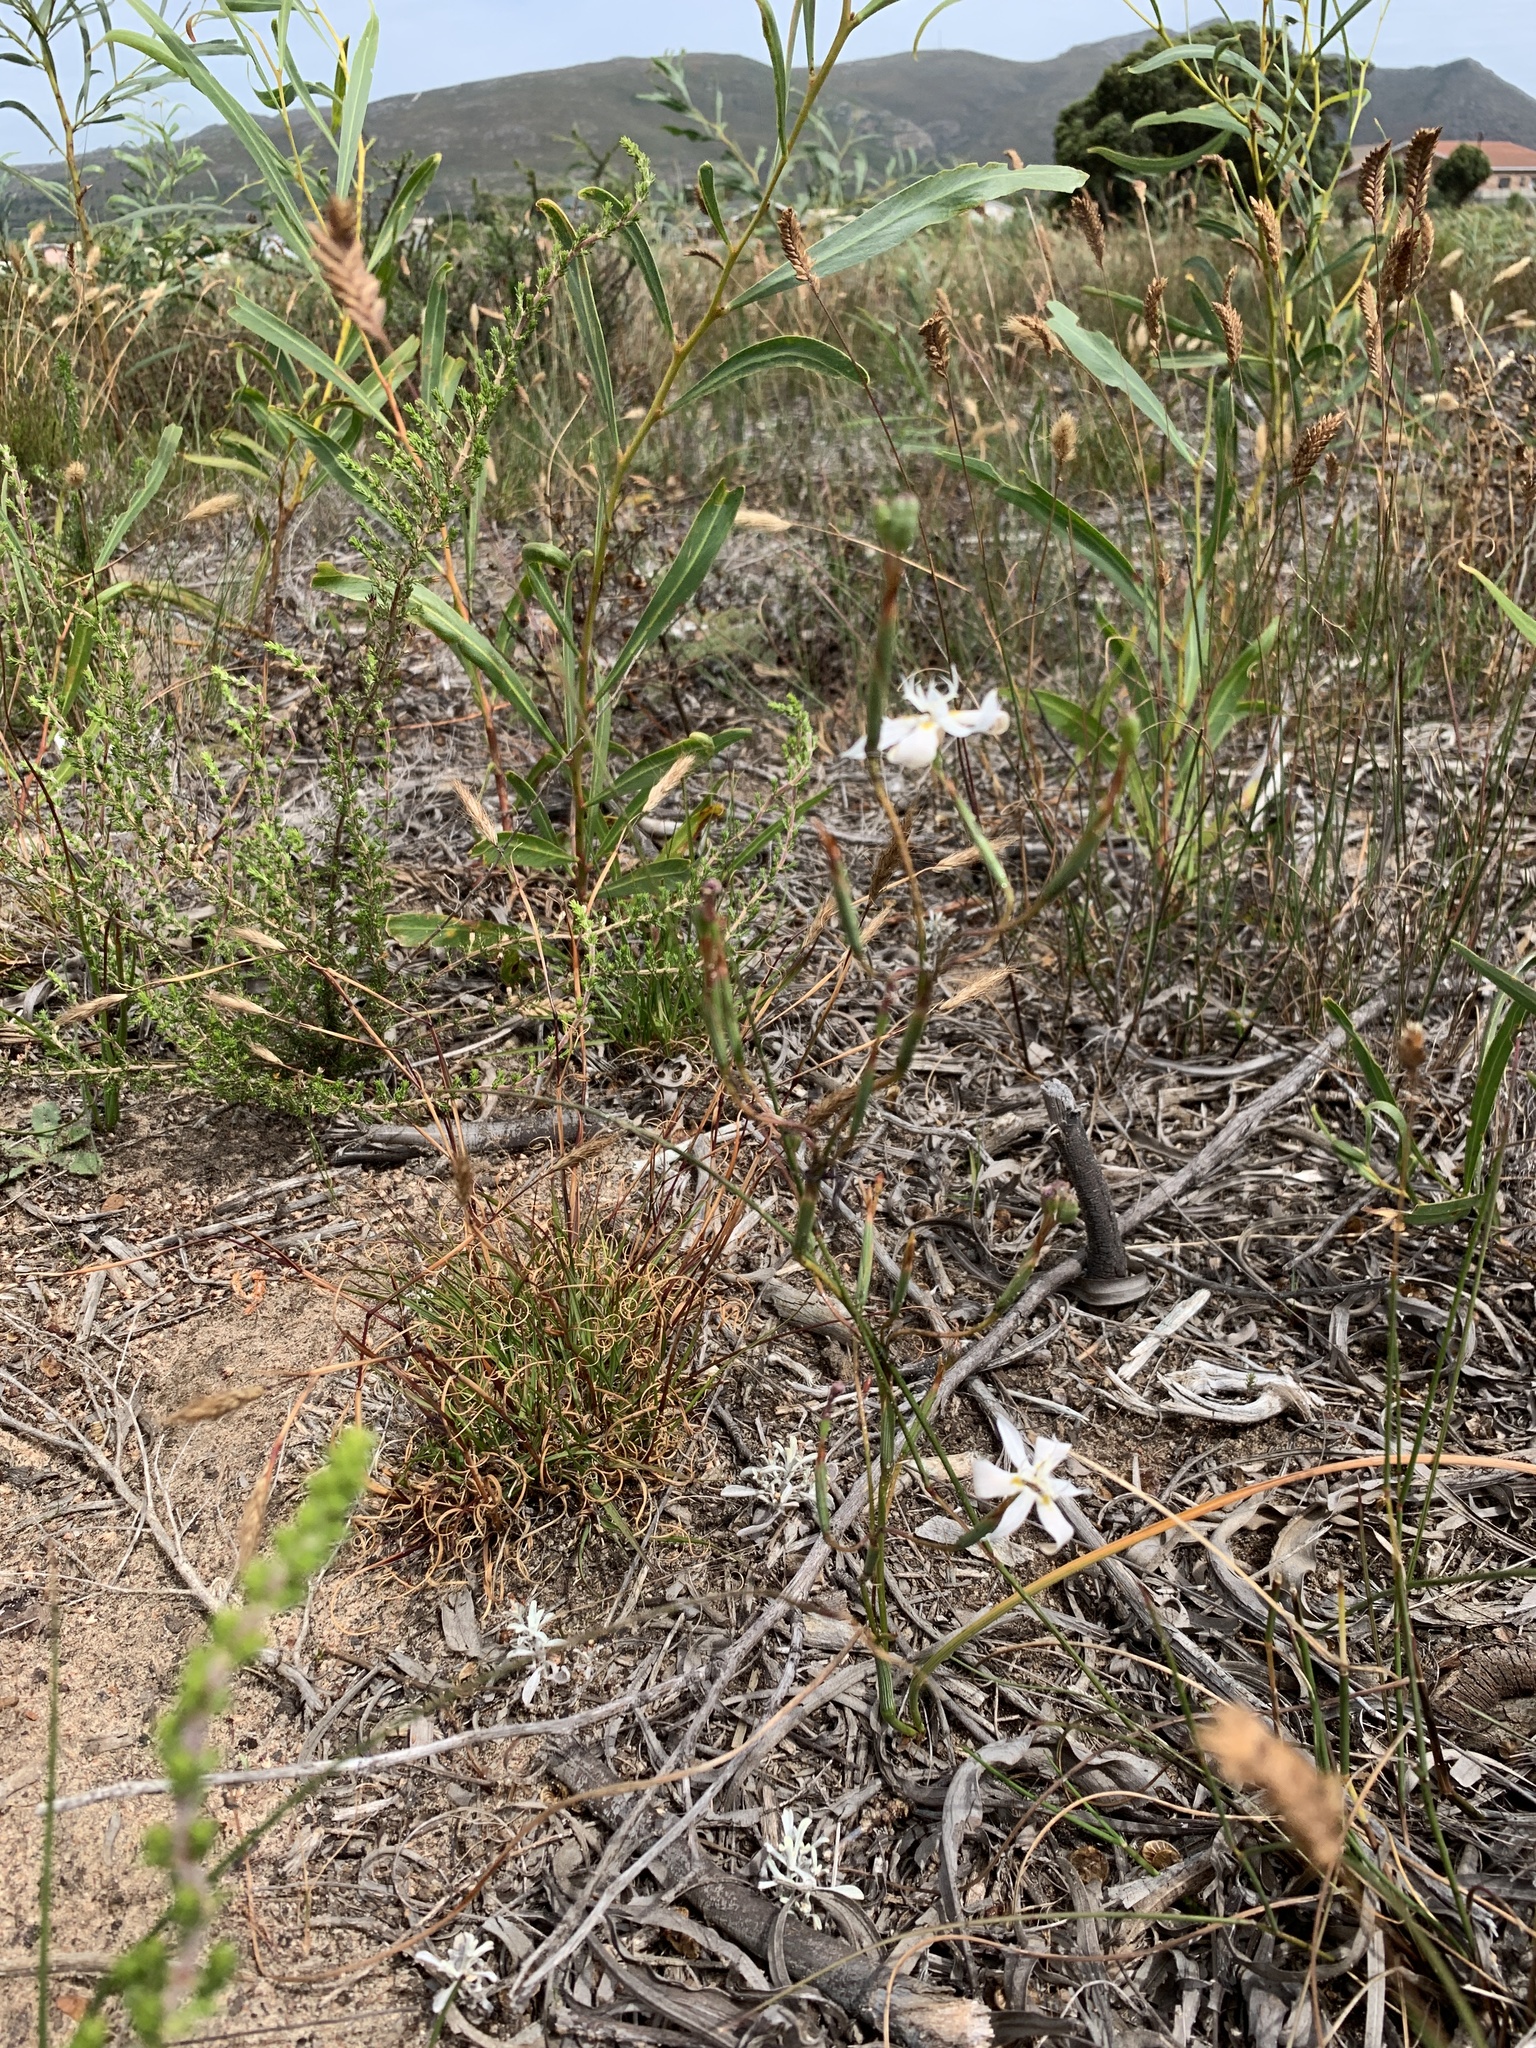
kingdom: Plantae
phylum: Tracheophyta
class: Liliopsida
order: Asparagales
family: Iridaceae
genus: Moraea
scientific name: Moraea viscaria
